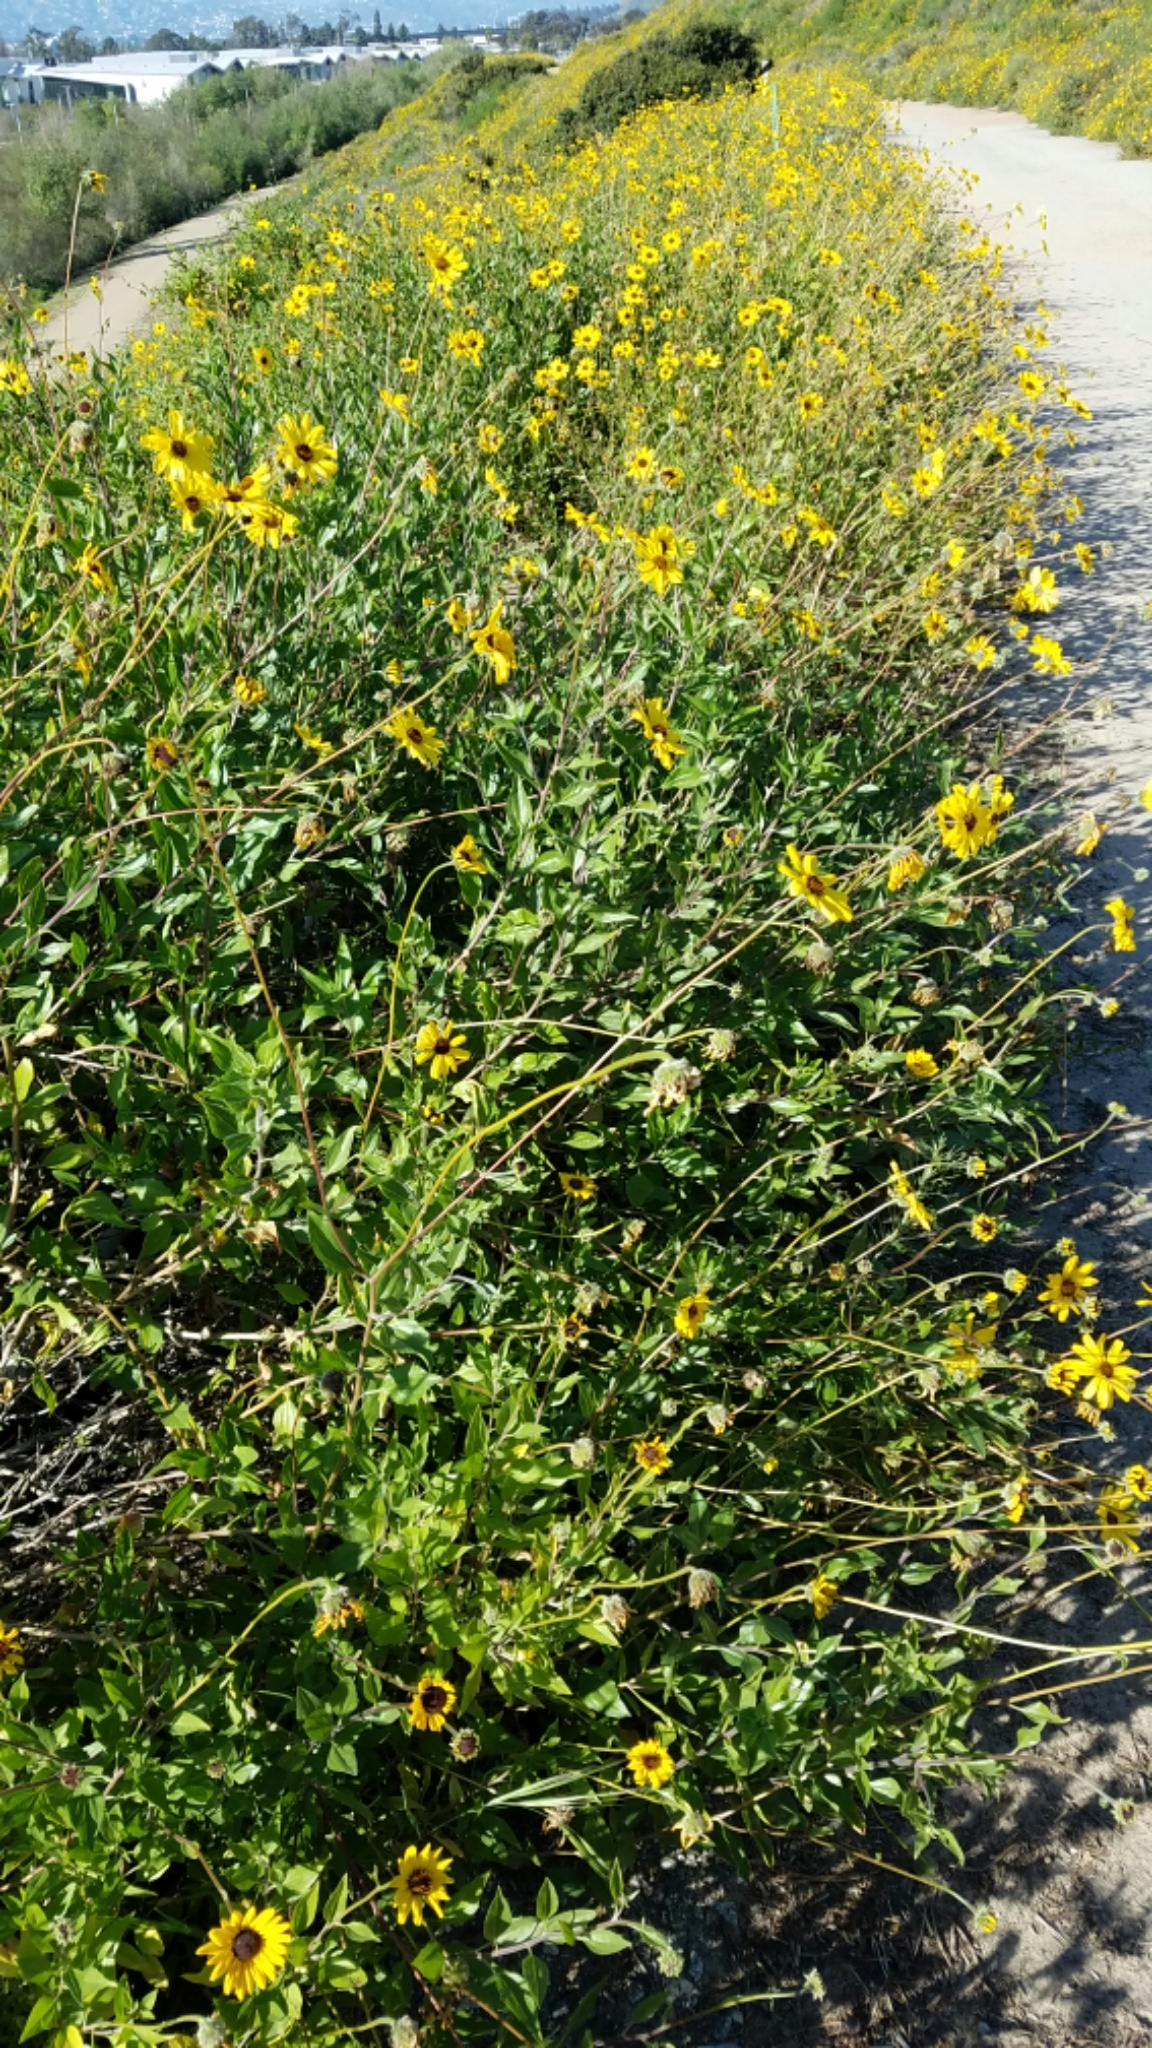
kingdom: Plantae
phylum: Tracheophyta
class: Magnoliopsida
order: Asterales
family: Asteraceae
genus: Encelia
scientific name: Encelia californica
